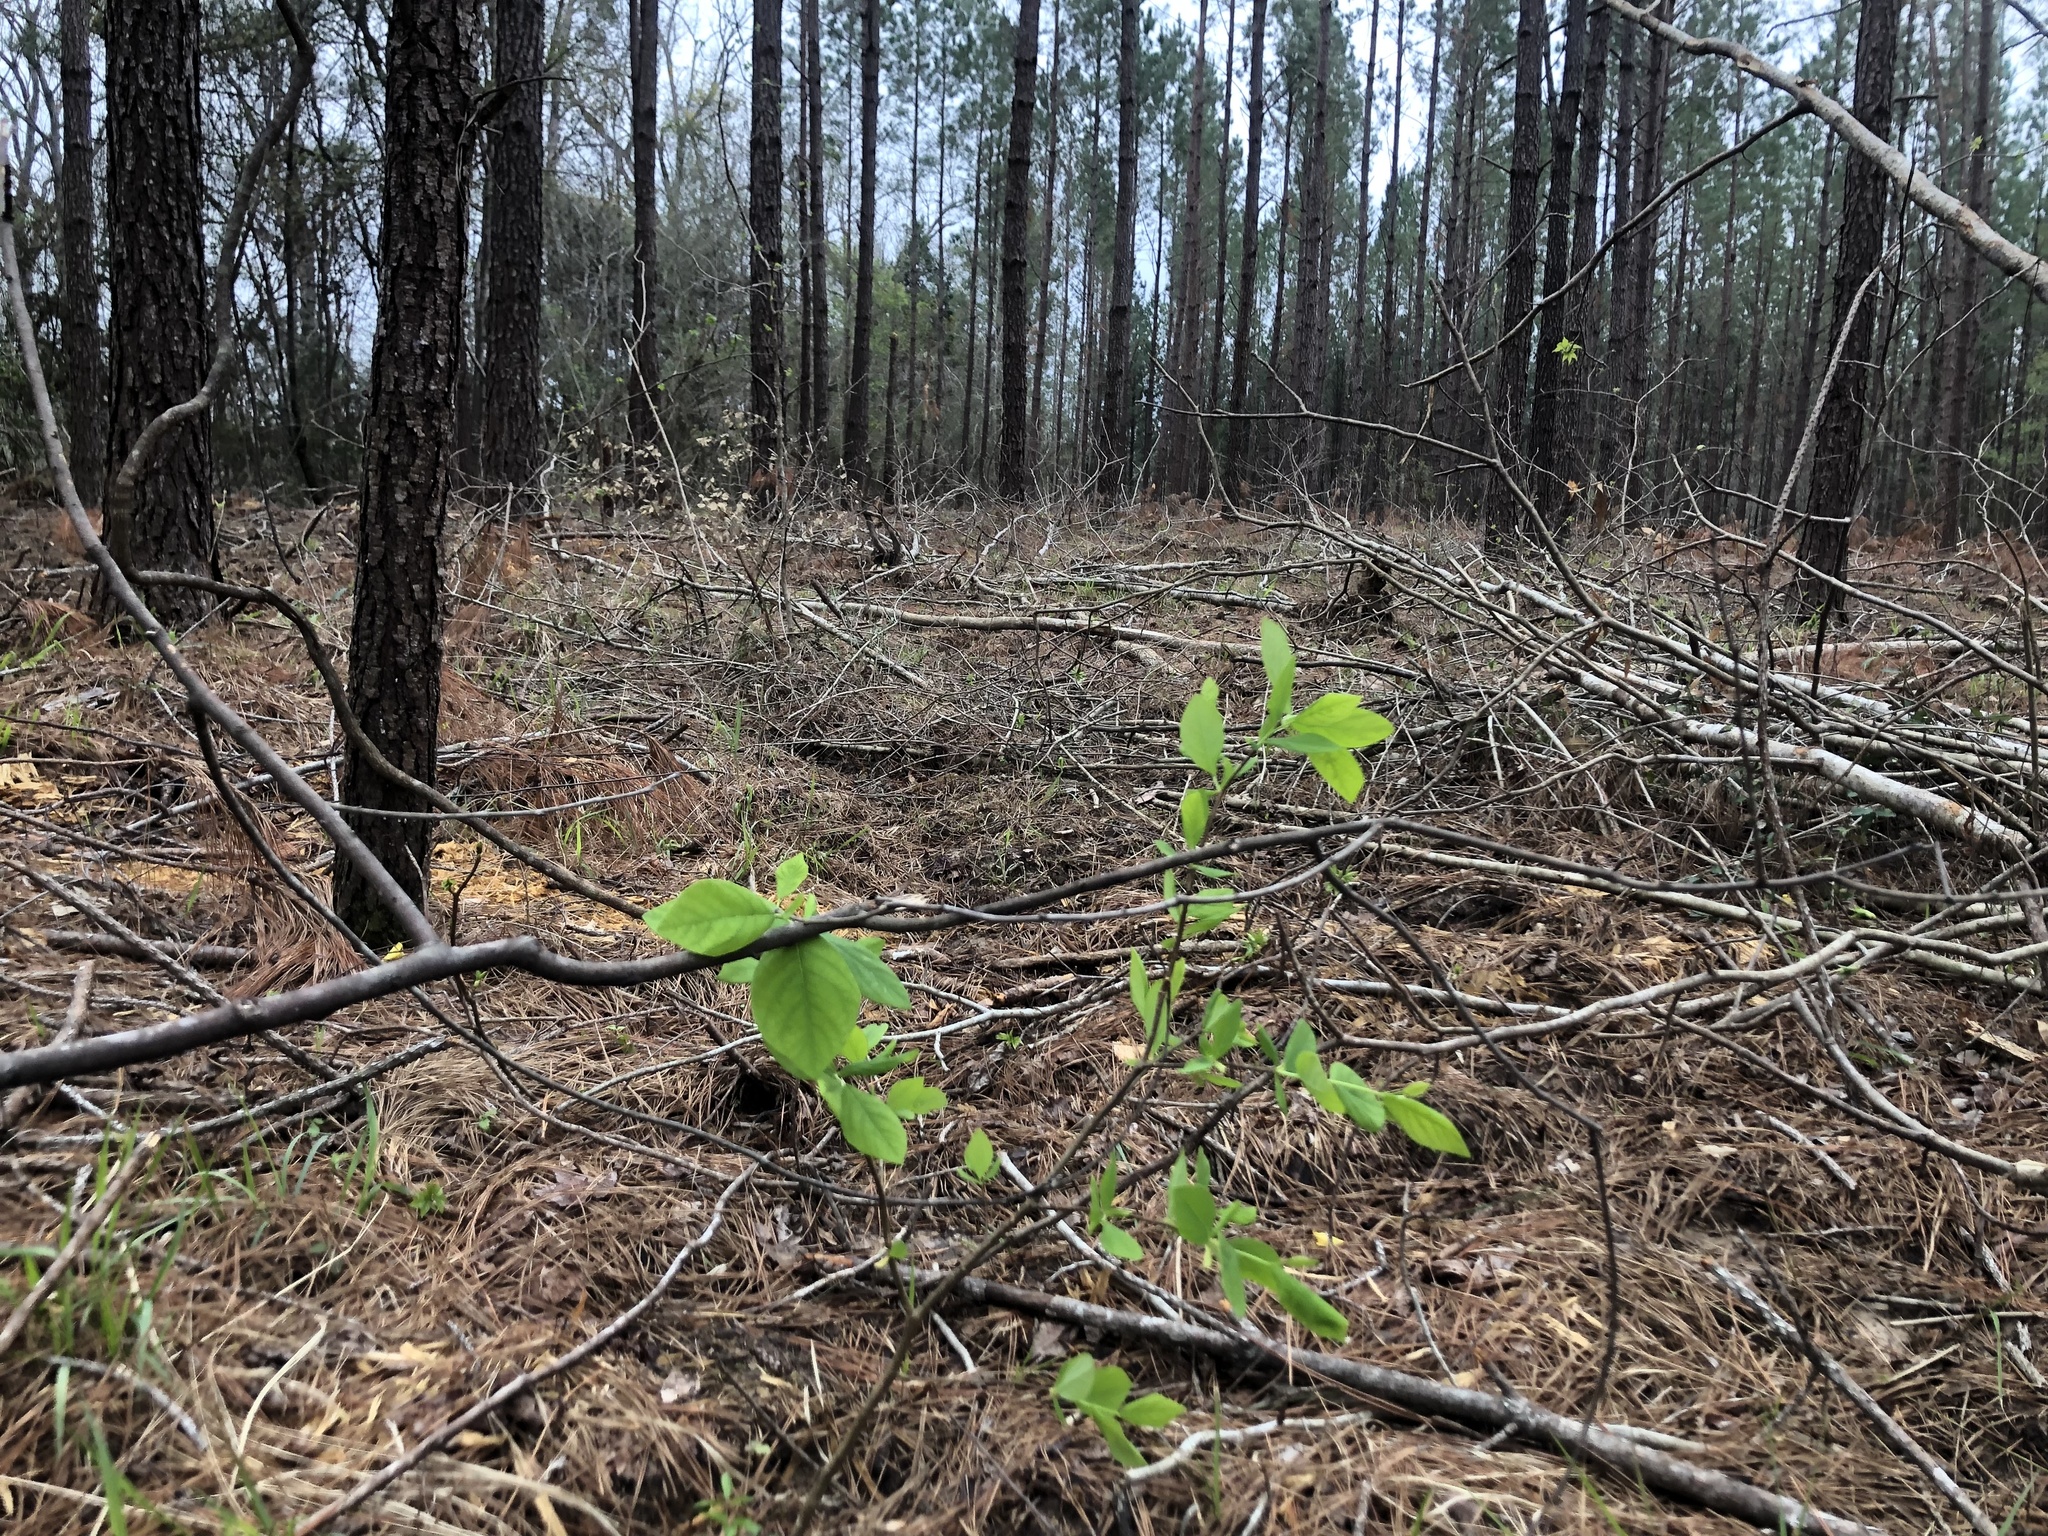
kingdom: Plantae
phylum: Tracheophyta
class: Magnoliopsida
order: Malvales
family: Thymelaeaceae
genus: Dirca
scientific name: Dirca palustris
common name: Leatherwood
